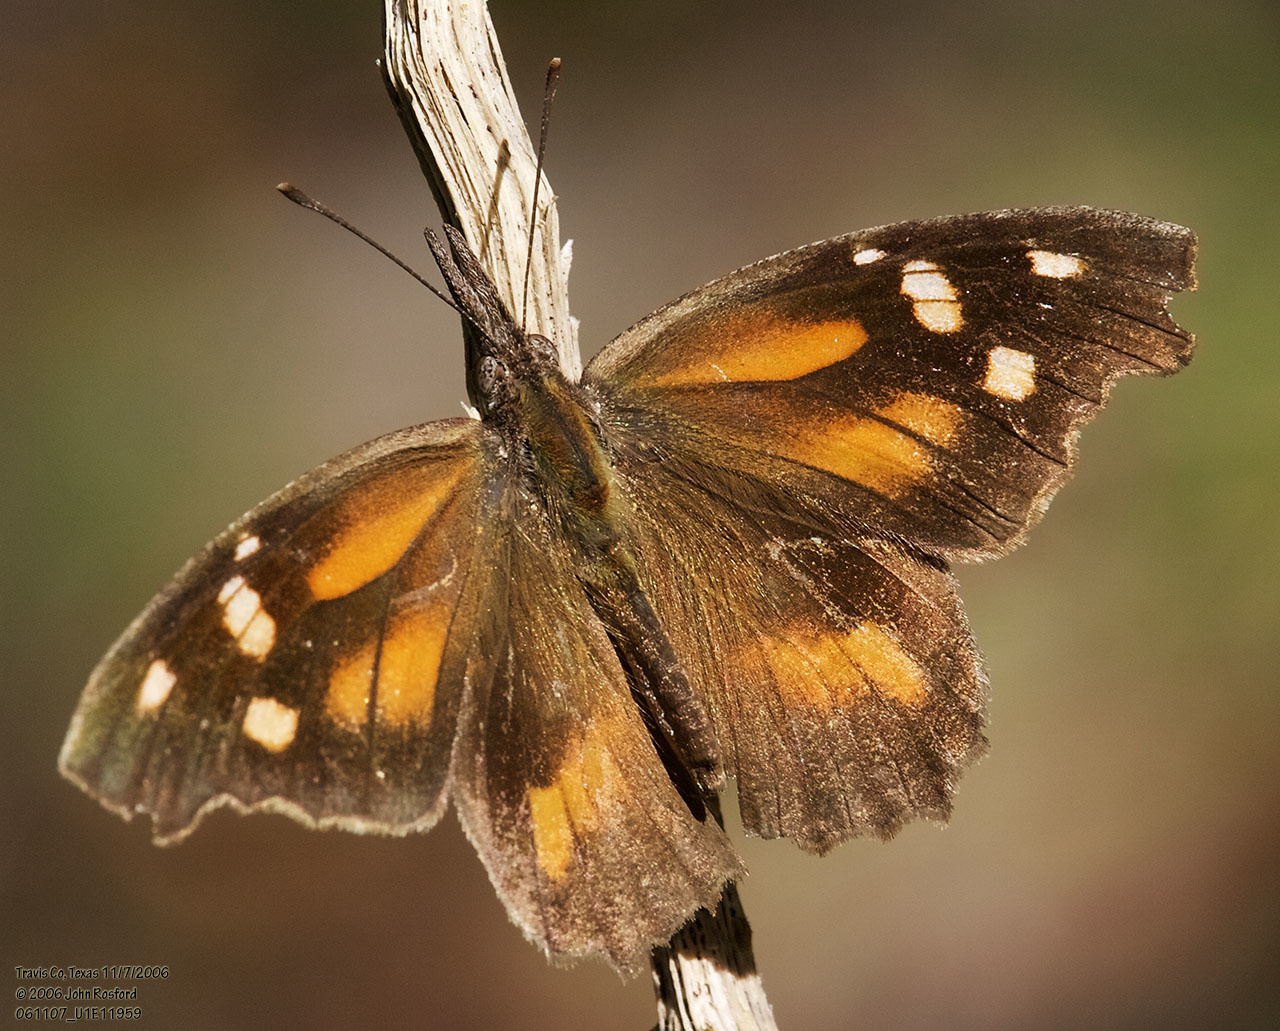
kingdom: Animalia
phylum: Arthropoda
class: Insecta
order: Lepidoptera
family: Nymphalidae
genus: Libytheana
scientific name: Libytheana carinenta
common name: American snout
